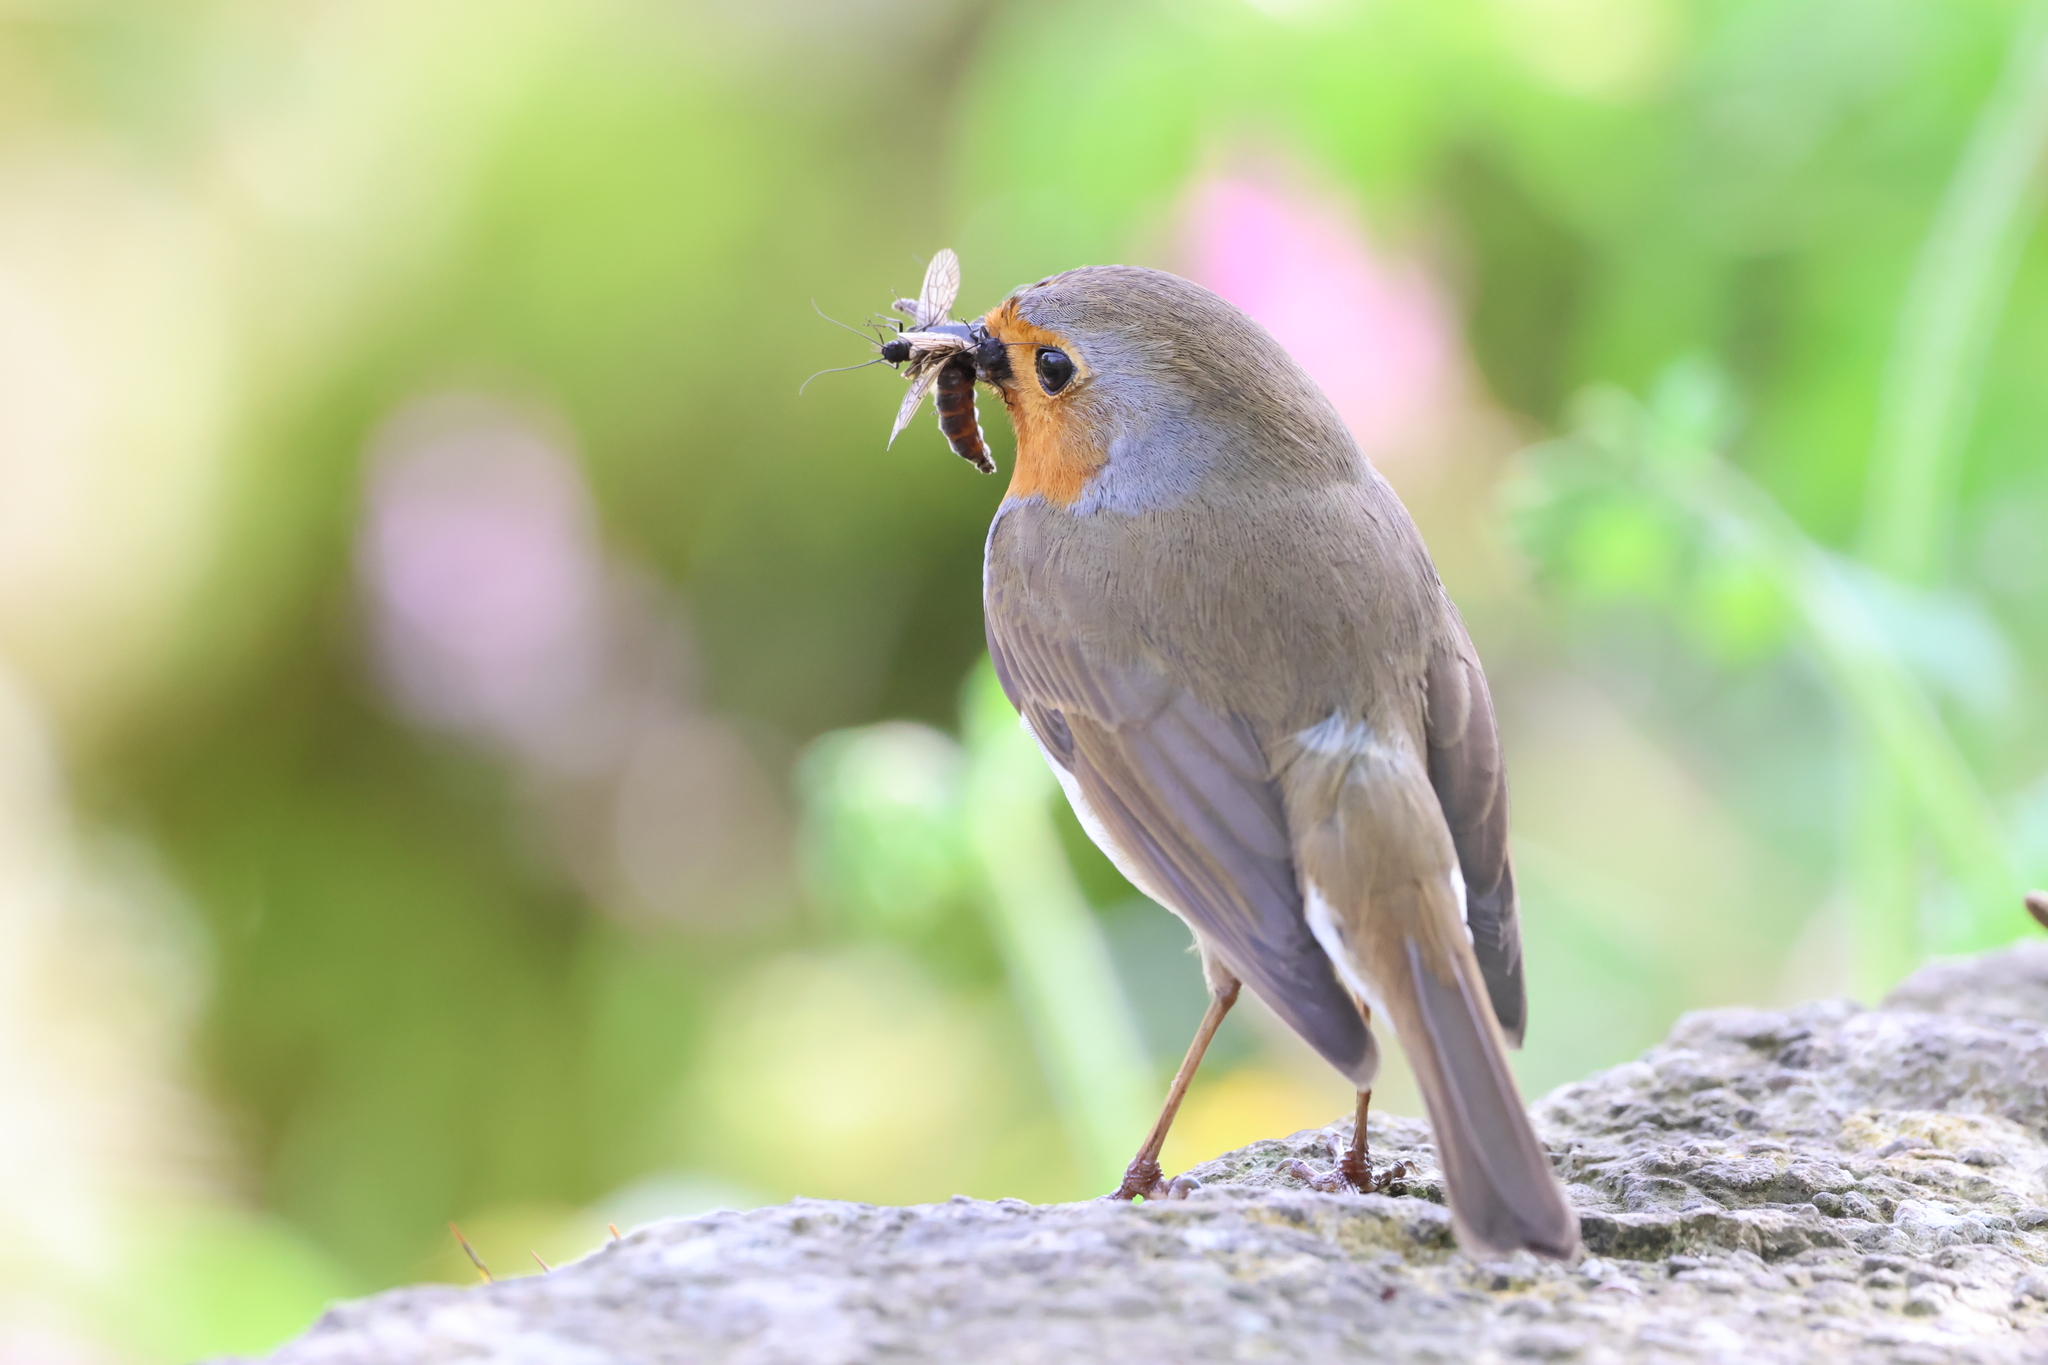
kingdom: Animalia
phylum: Chordata
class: Aves
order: Passeriformes
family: Muscicapidae
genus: Erithacus
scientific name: Erithacus rubecula
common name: European robin
